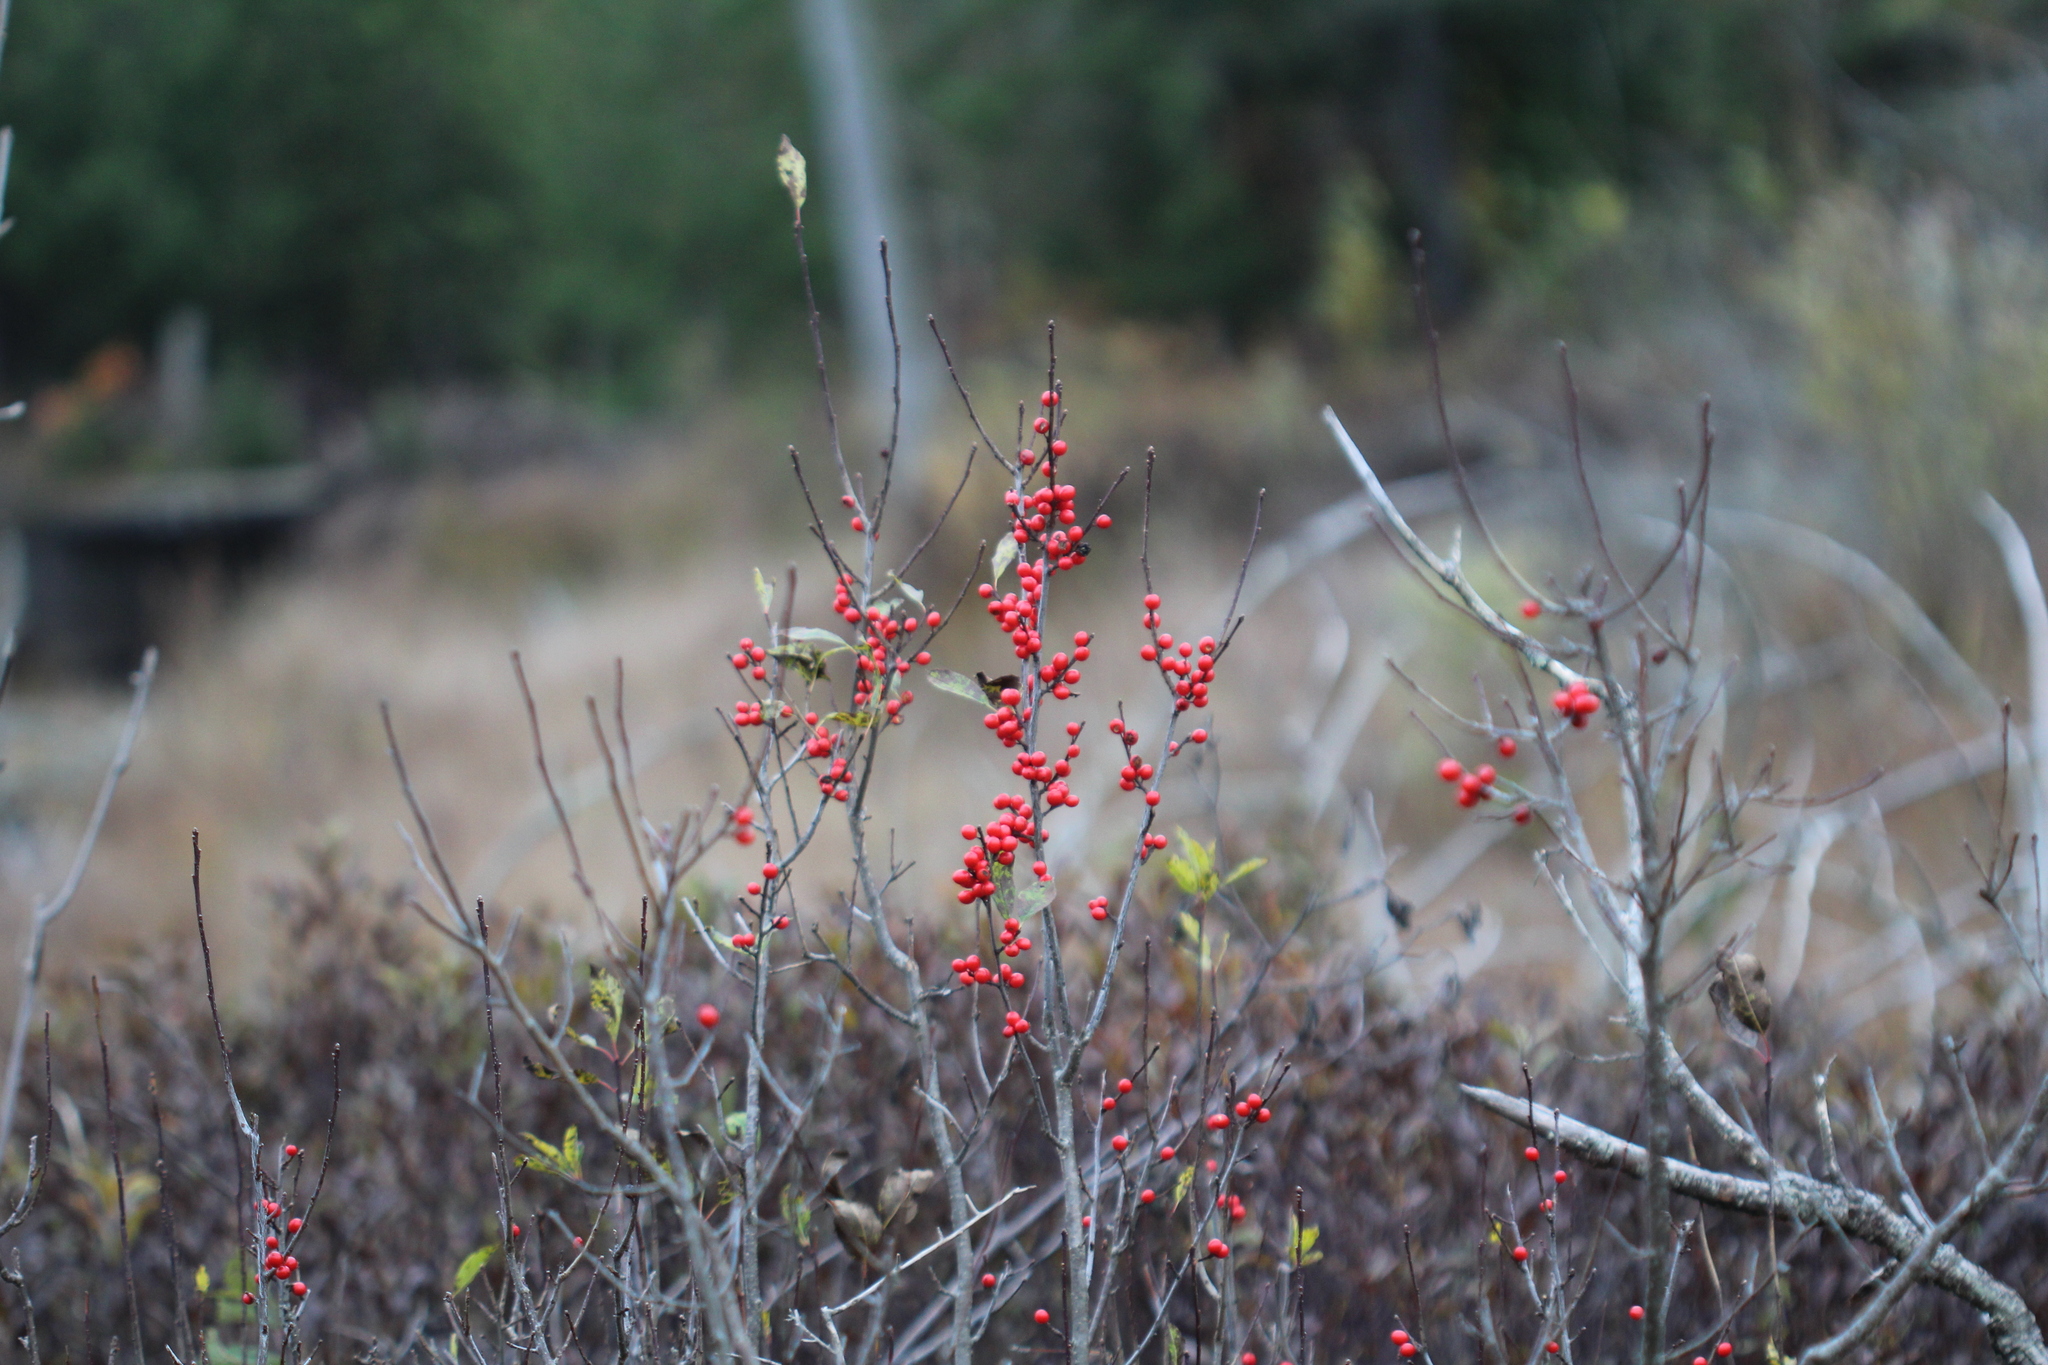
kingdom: Plantae
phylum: Tracheophyta
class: Magnoliopsida
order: Aquifoliales
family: Aquifoliaceae
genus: Ilex
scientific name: Ilex verticillata
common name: Virginia winterberry
